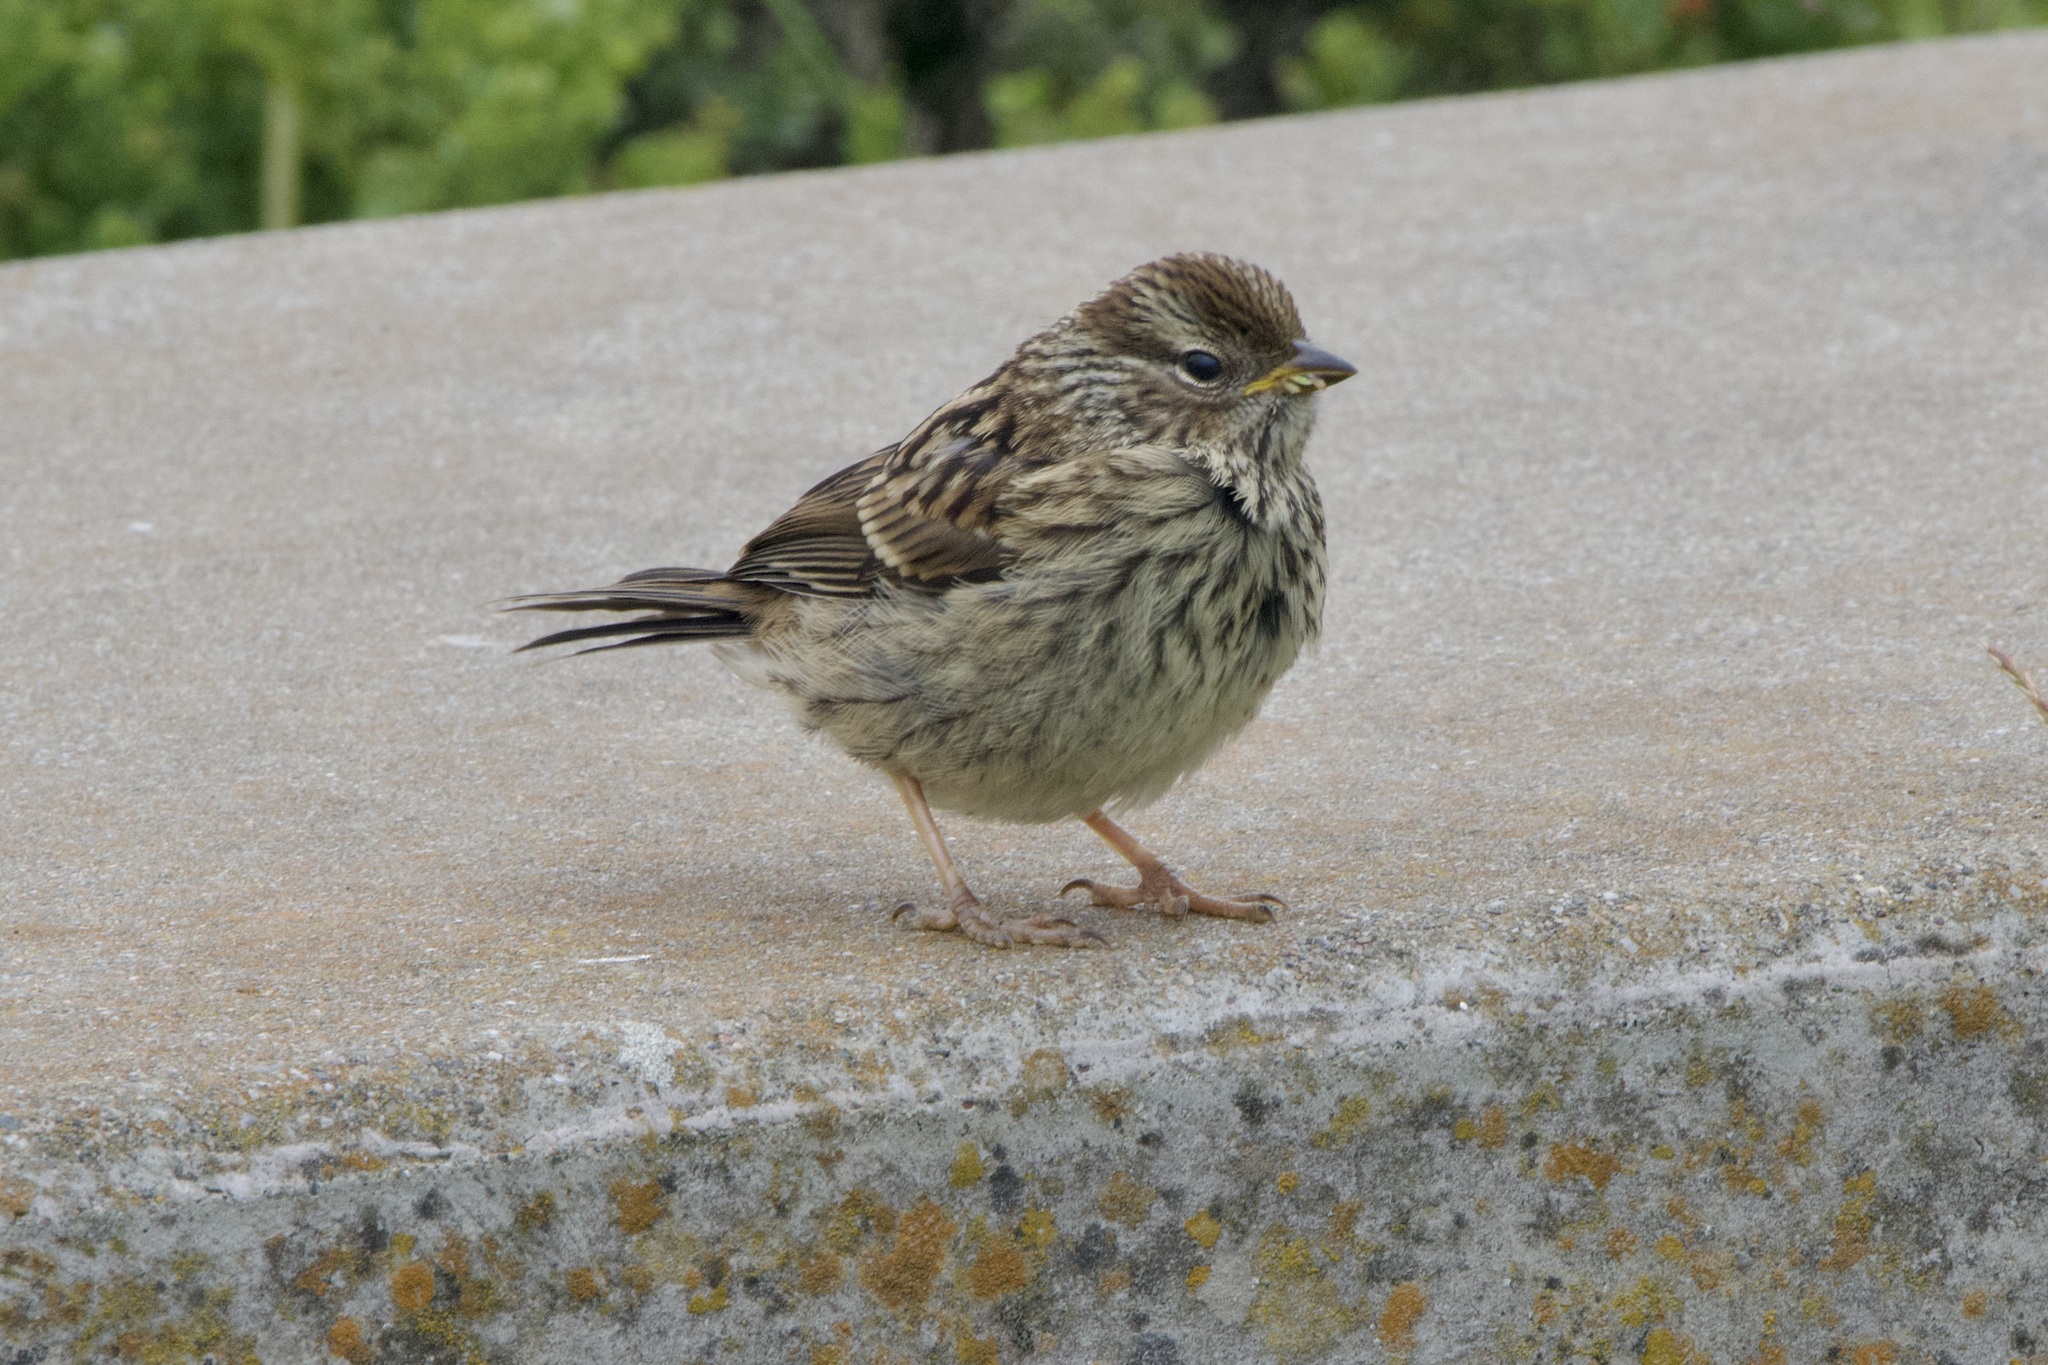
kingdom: Animalia
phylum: Chordata
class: Aves
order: Passeriformes
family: Passerellidae
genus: Zonotrichia
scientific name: Zonotrichia leucophrys
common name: White-crowned sparrow
